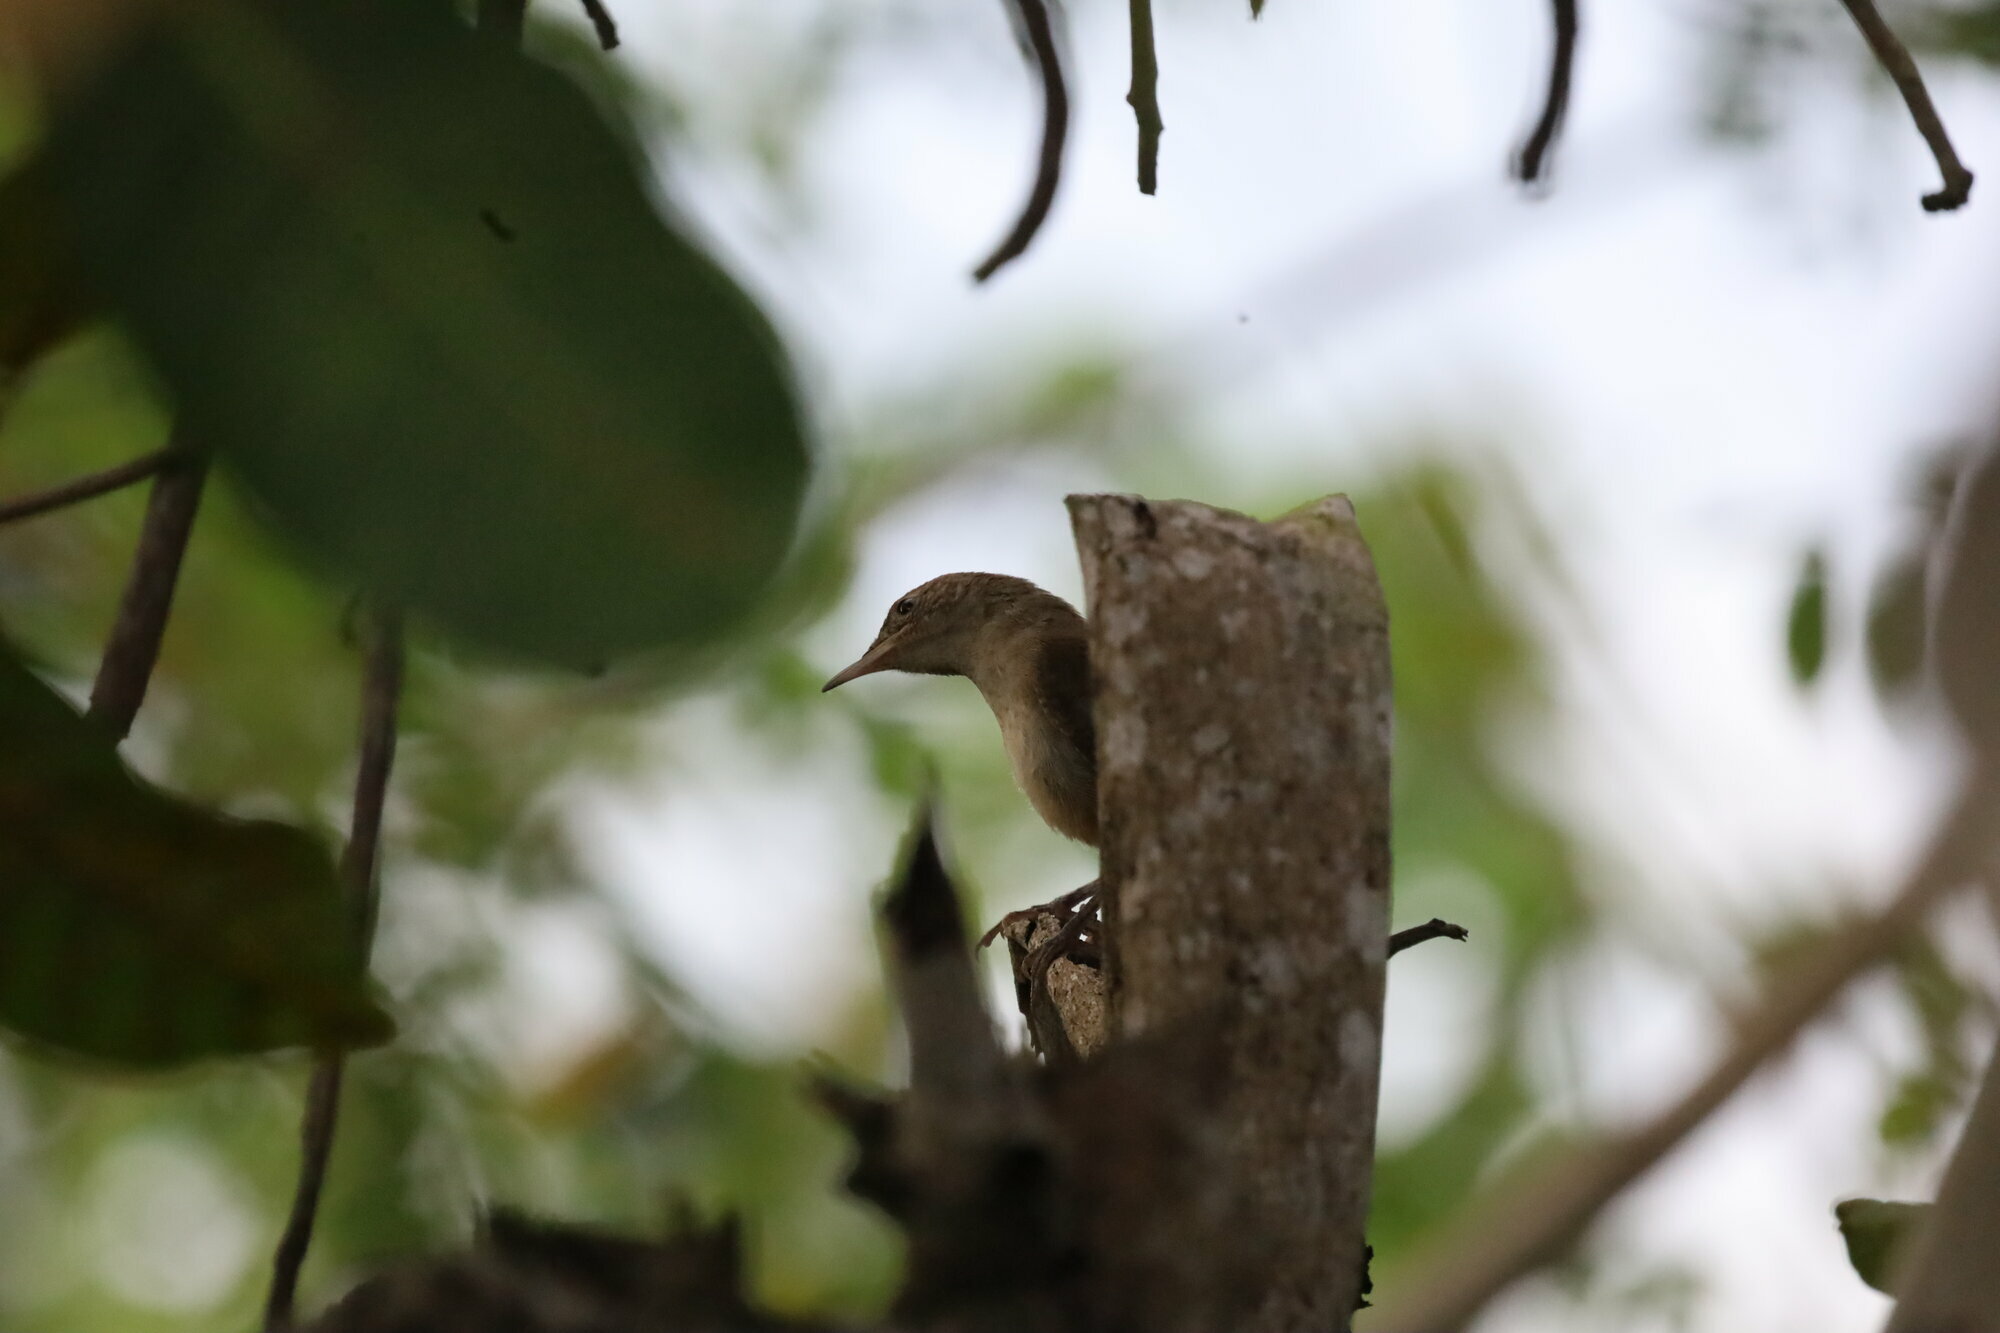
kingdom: Animalia
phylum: Chordata
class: Aves
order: Passeriformes
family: Troglodytidae
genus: Troglodytes
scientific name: Troglodytes aedon
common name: House wren
